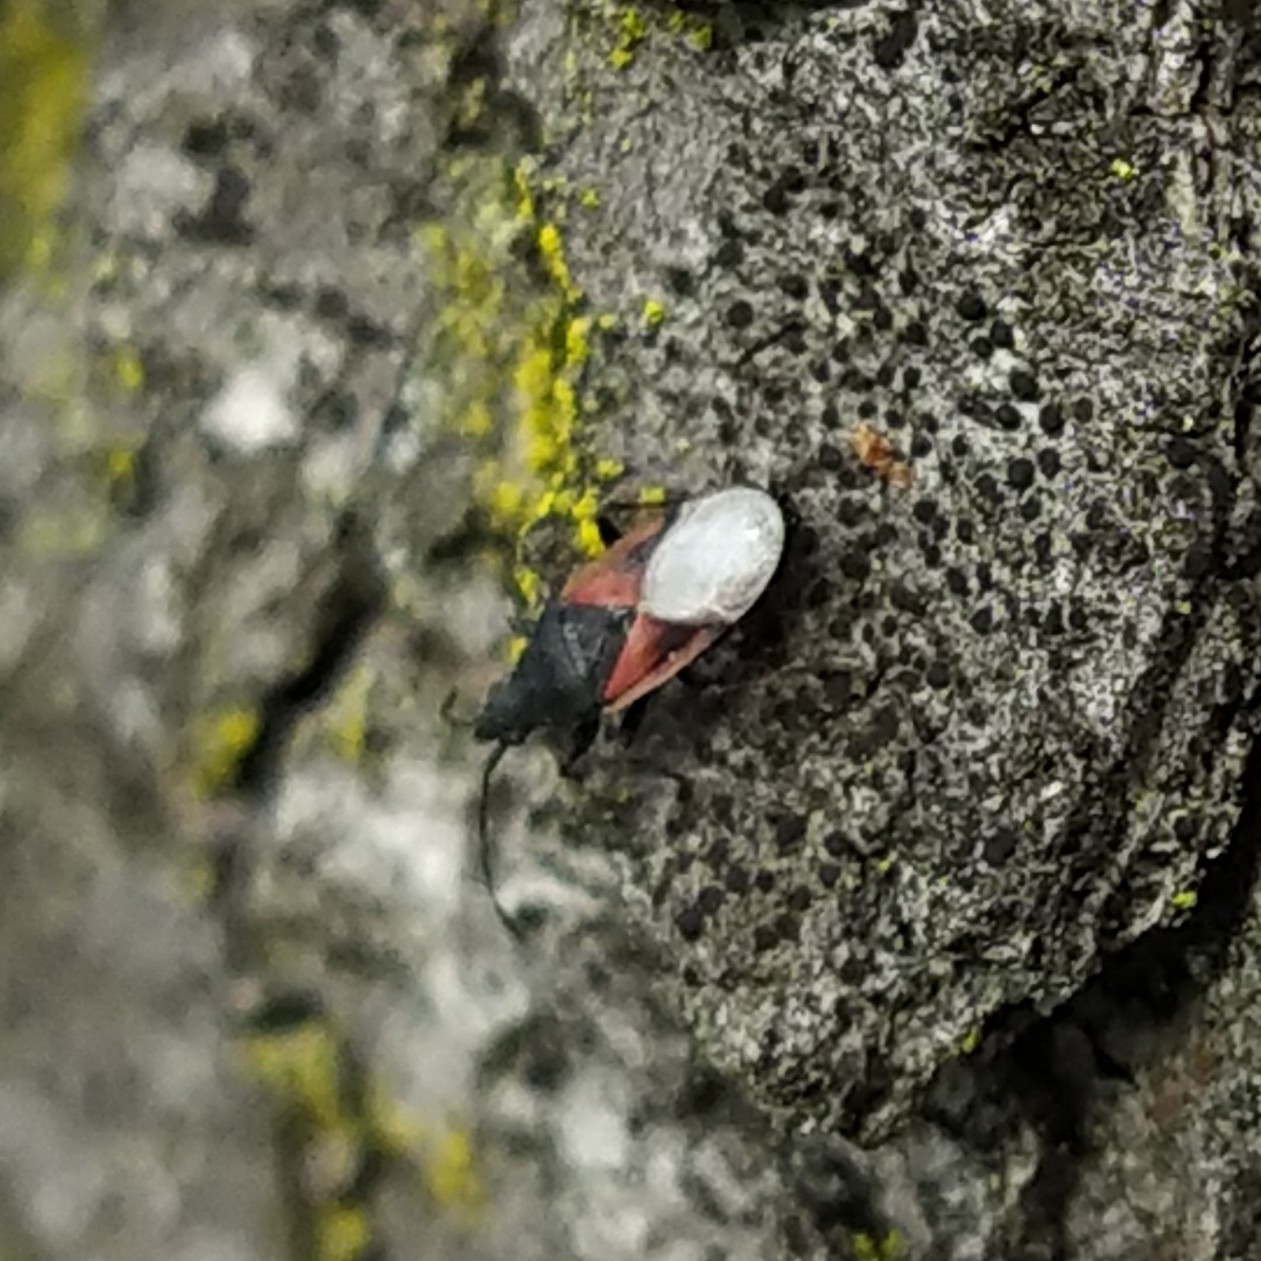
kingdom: Animalia
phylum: Arthropoda
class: Insecta
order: Hemiptera
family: Oxycarenidae
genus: Oxycarenus
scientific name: Oxycarenus lavaterae
